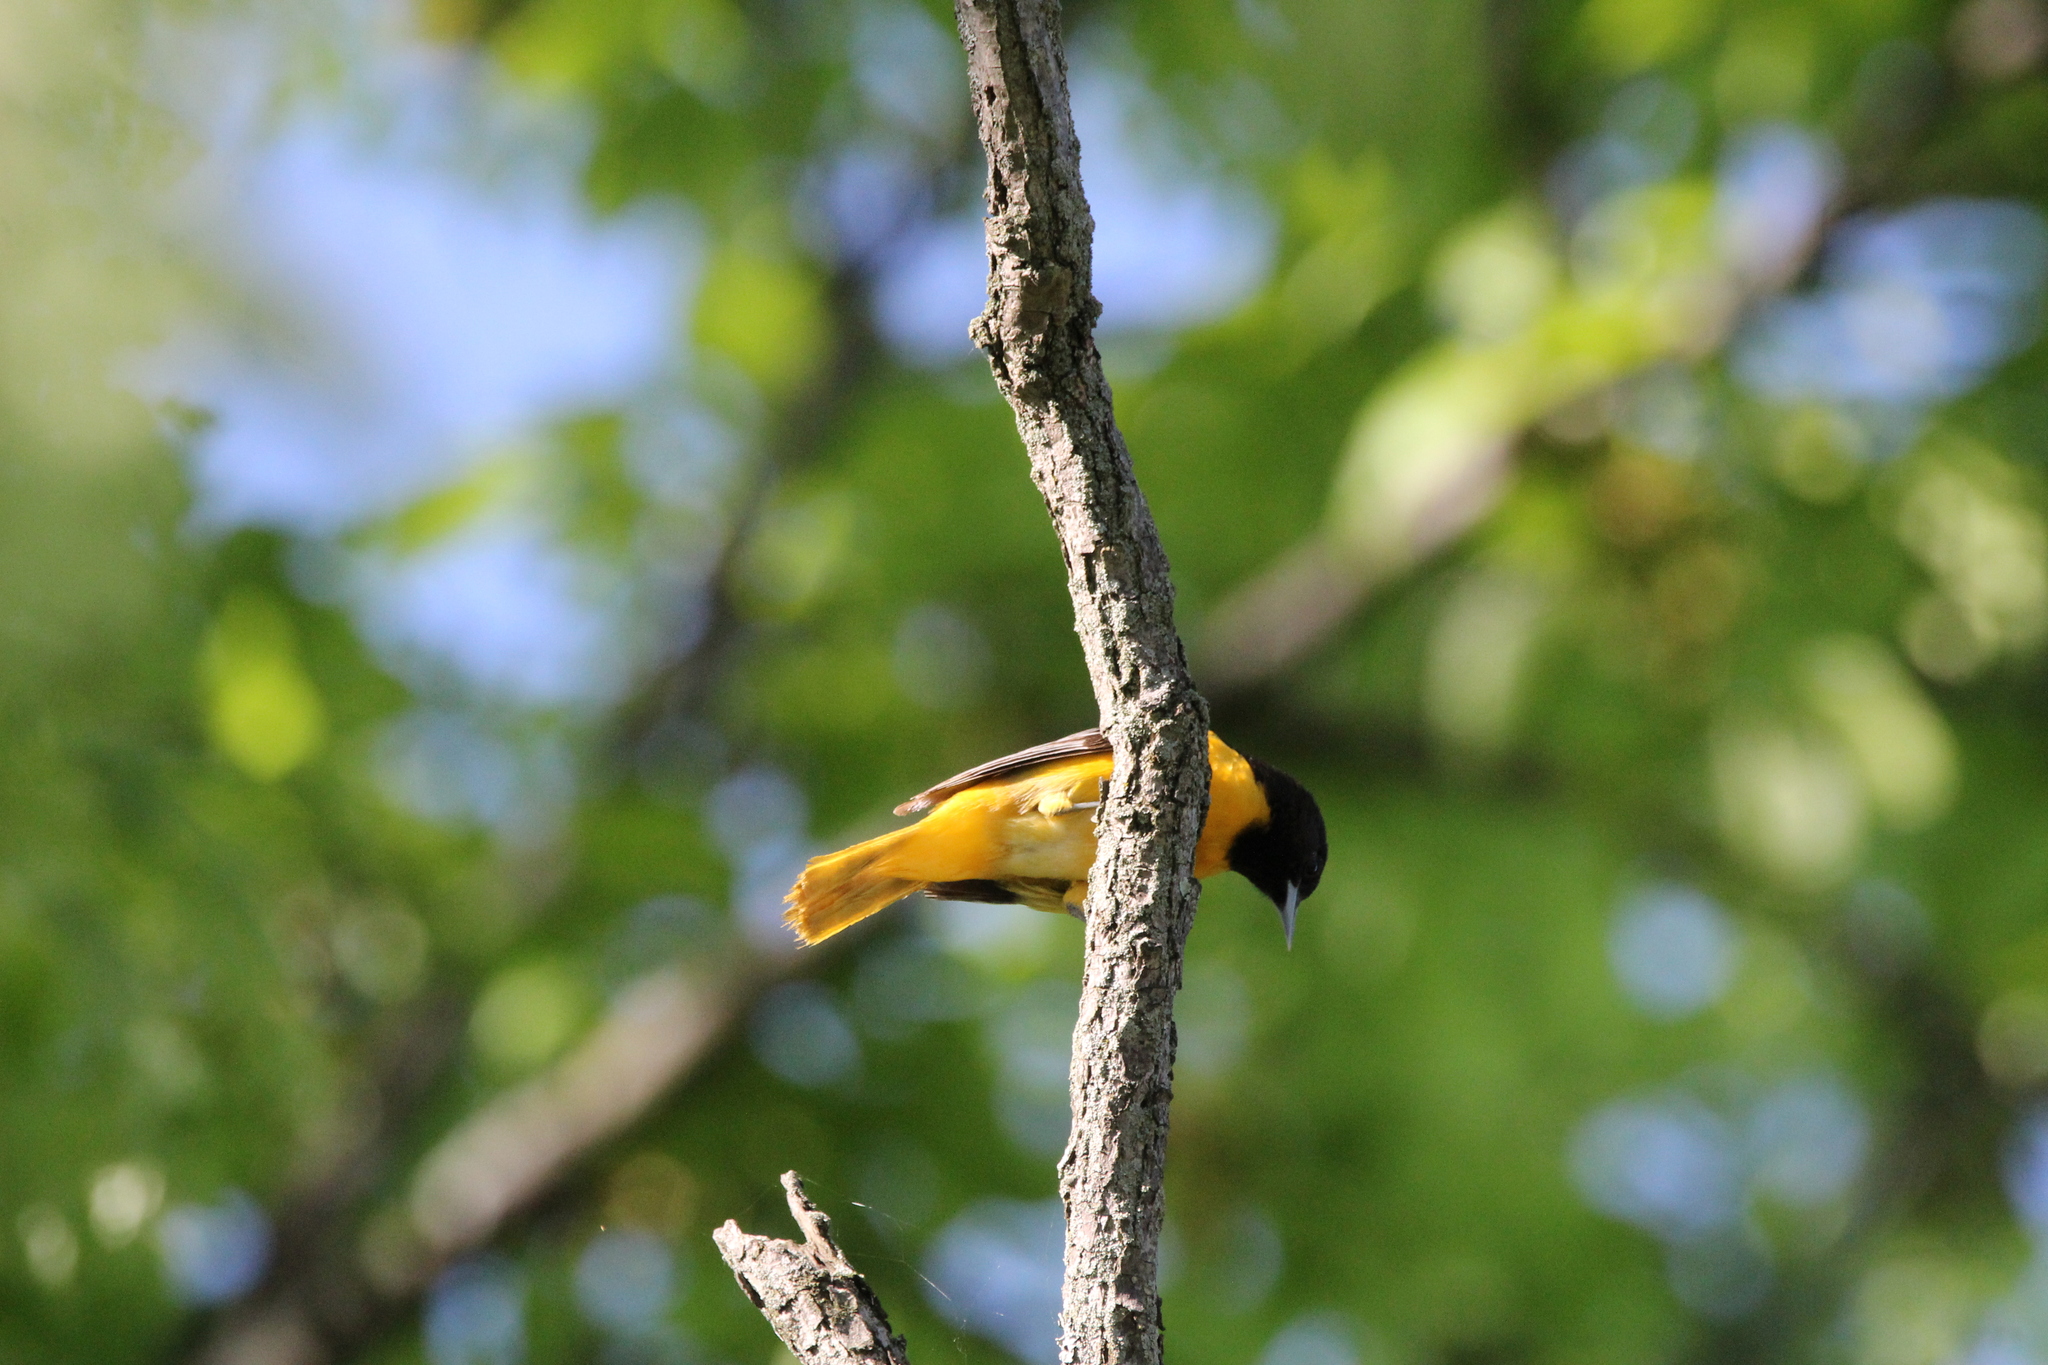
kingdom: Animalia
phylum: Chordata
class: Aves
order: Passeriformes
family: Icteridae
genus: Icterus
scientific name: Icterus galbula
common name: Baltimore oriole
